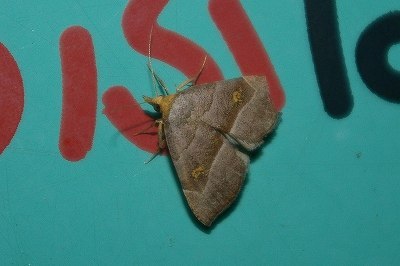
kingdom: Animalia
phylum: Arthropoda
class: Insecta
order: Lepidoptera
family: Erebidae
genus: Paragabara
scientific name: Paragabara flavomacula
